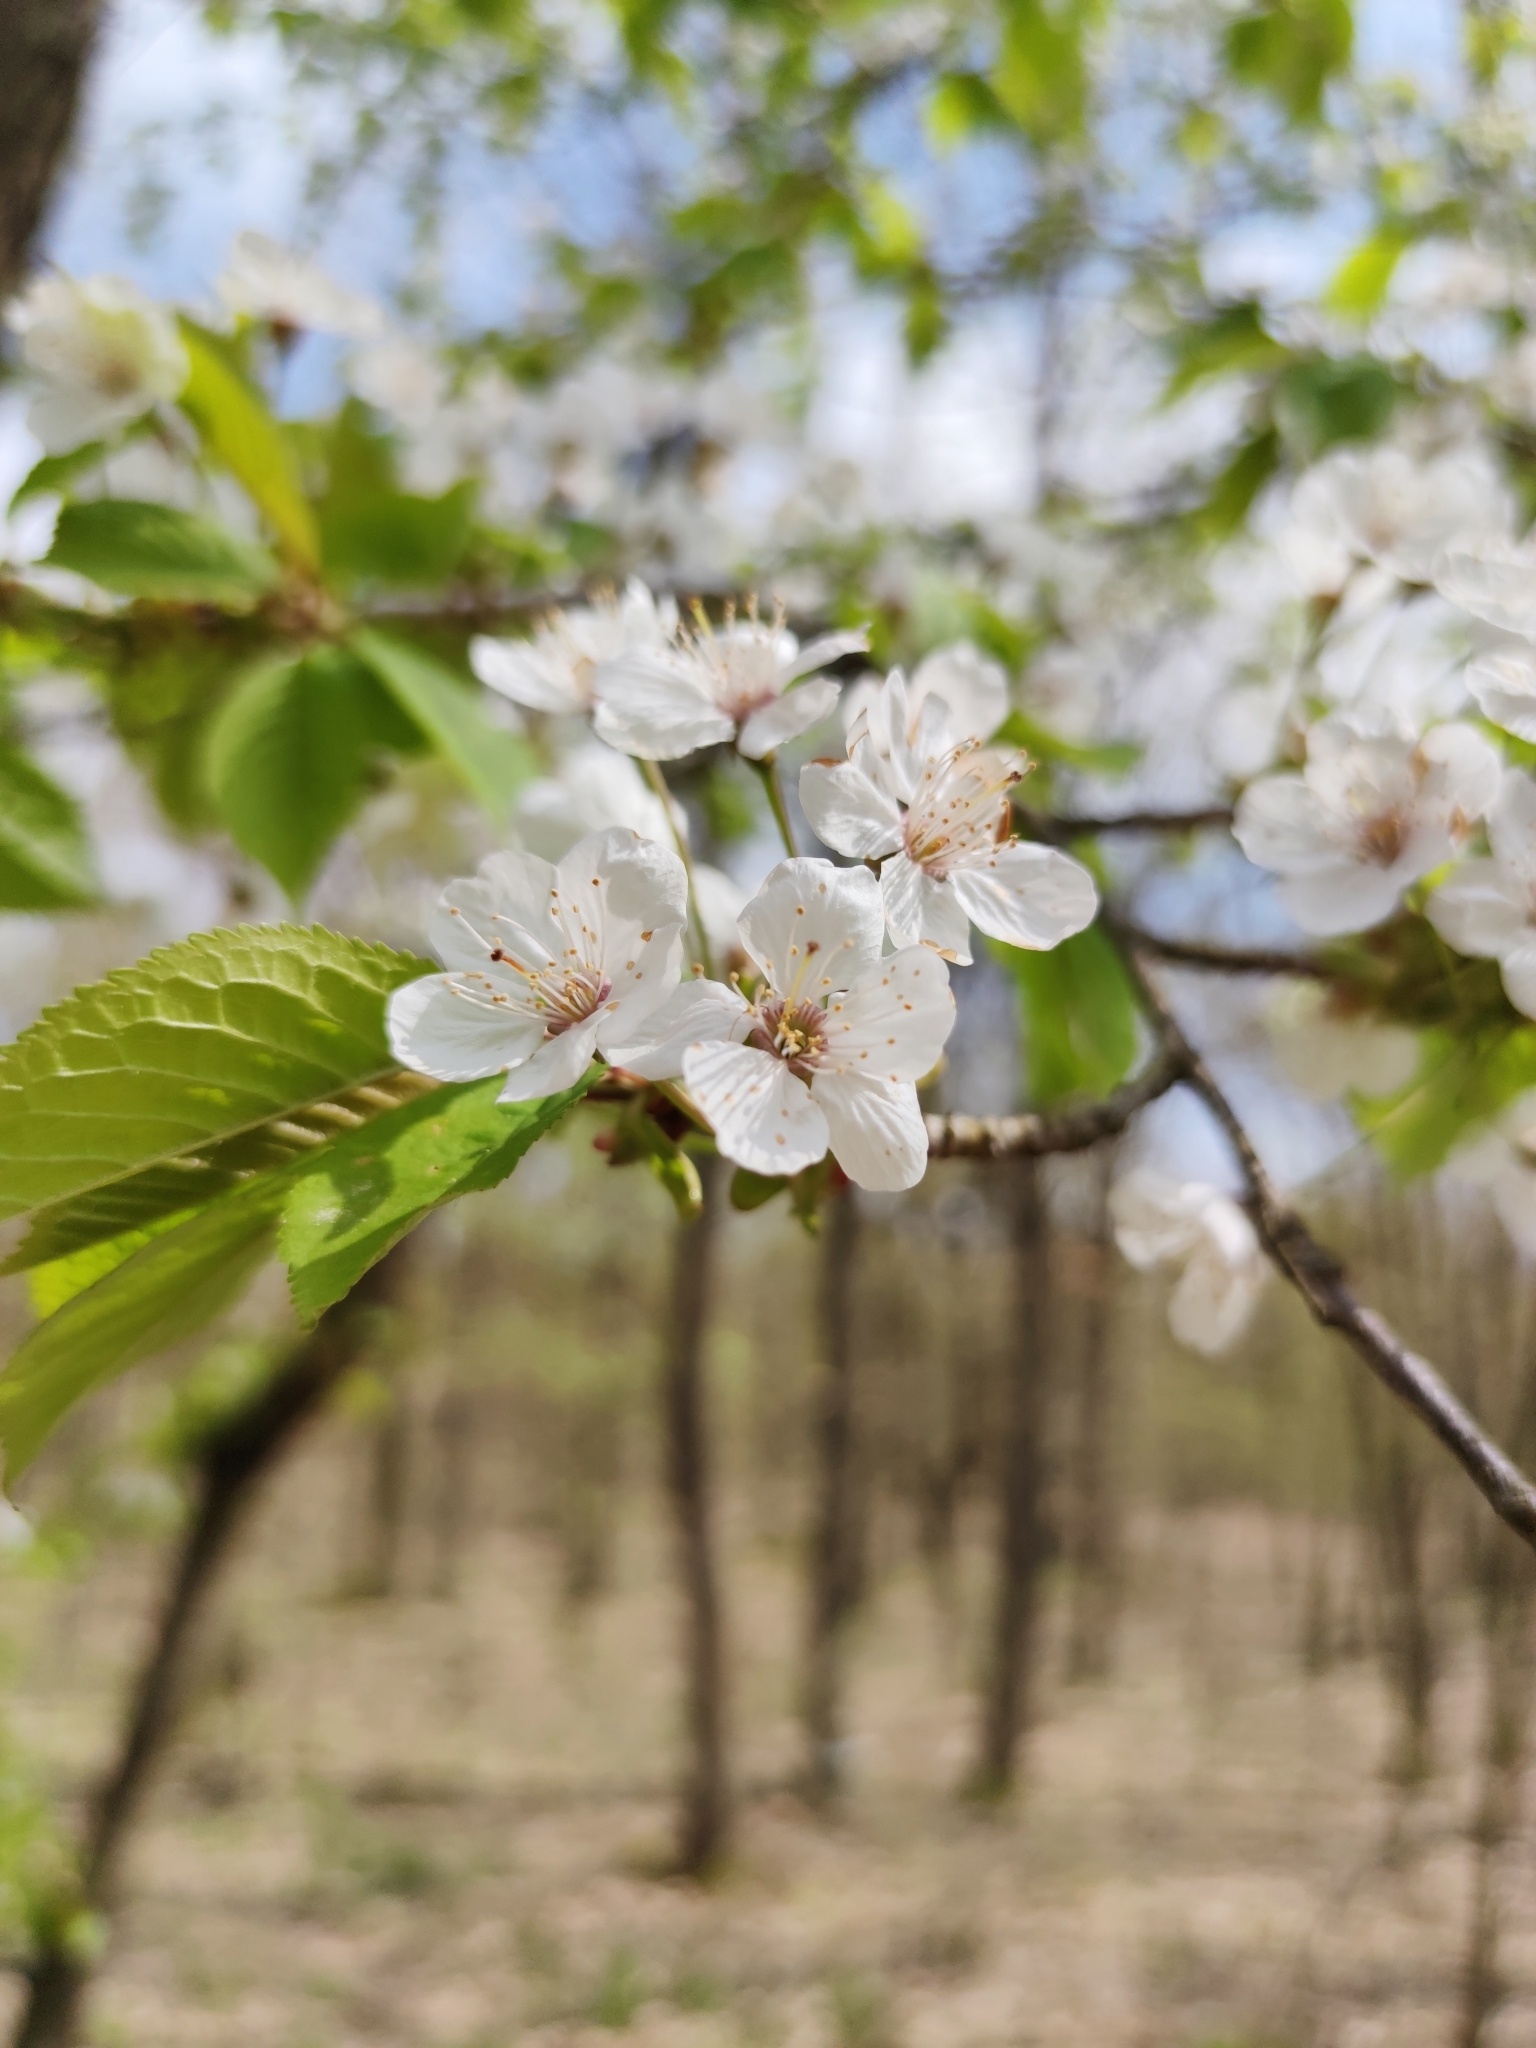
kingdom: Plantae
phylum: Tracheophyta
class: Magnoliopsida
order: Rosales
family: Rosaceae
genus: Prunus
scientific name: Prunus avium
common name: Sweet cherry
